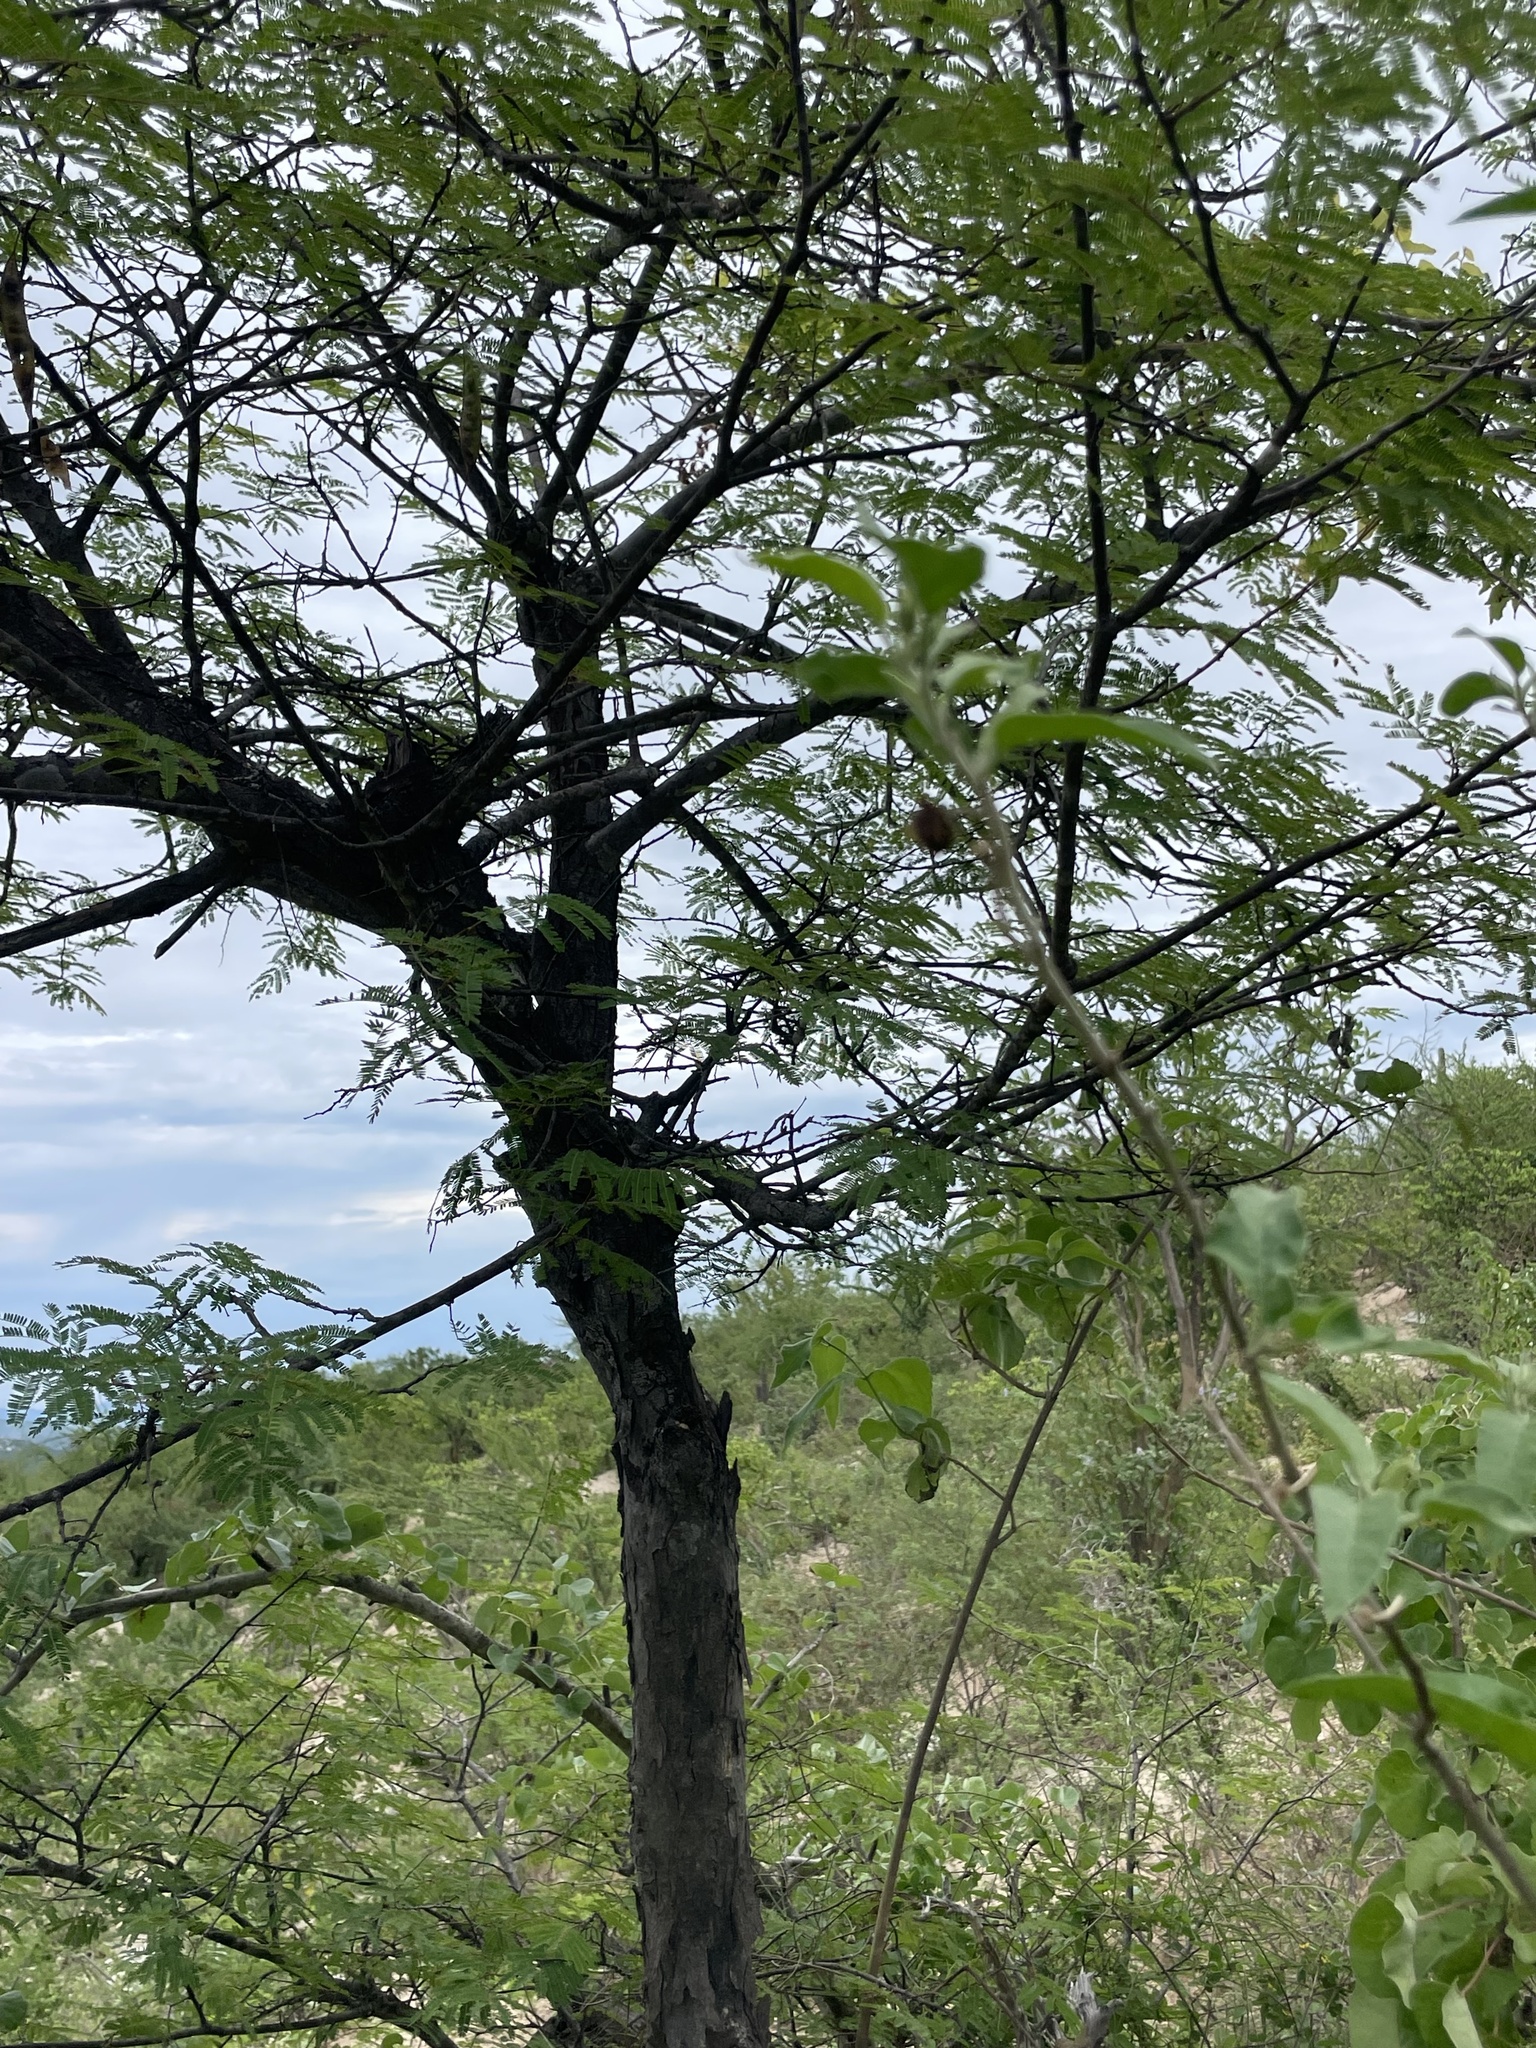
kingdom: Plantae
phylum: Tracheophyta
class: Magnoliopsida
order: Fabales
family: Fabaceae
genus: Lysiloma
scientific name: Lysiloma divaricatum
